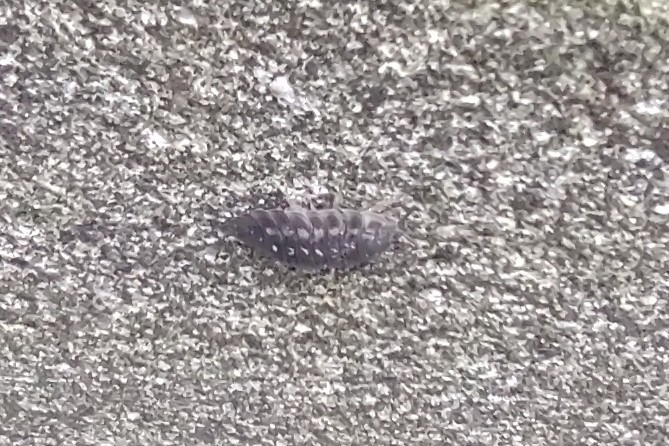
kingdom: Animalia
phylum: Arthropoda
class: Malacostraca
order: Isopoda
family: Oniscidae
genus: Oniscus
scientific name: Oniscus asellus
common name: Common shiny woodlouse
